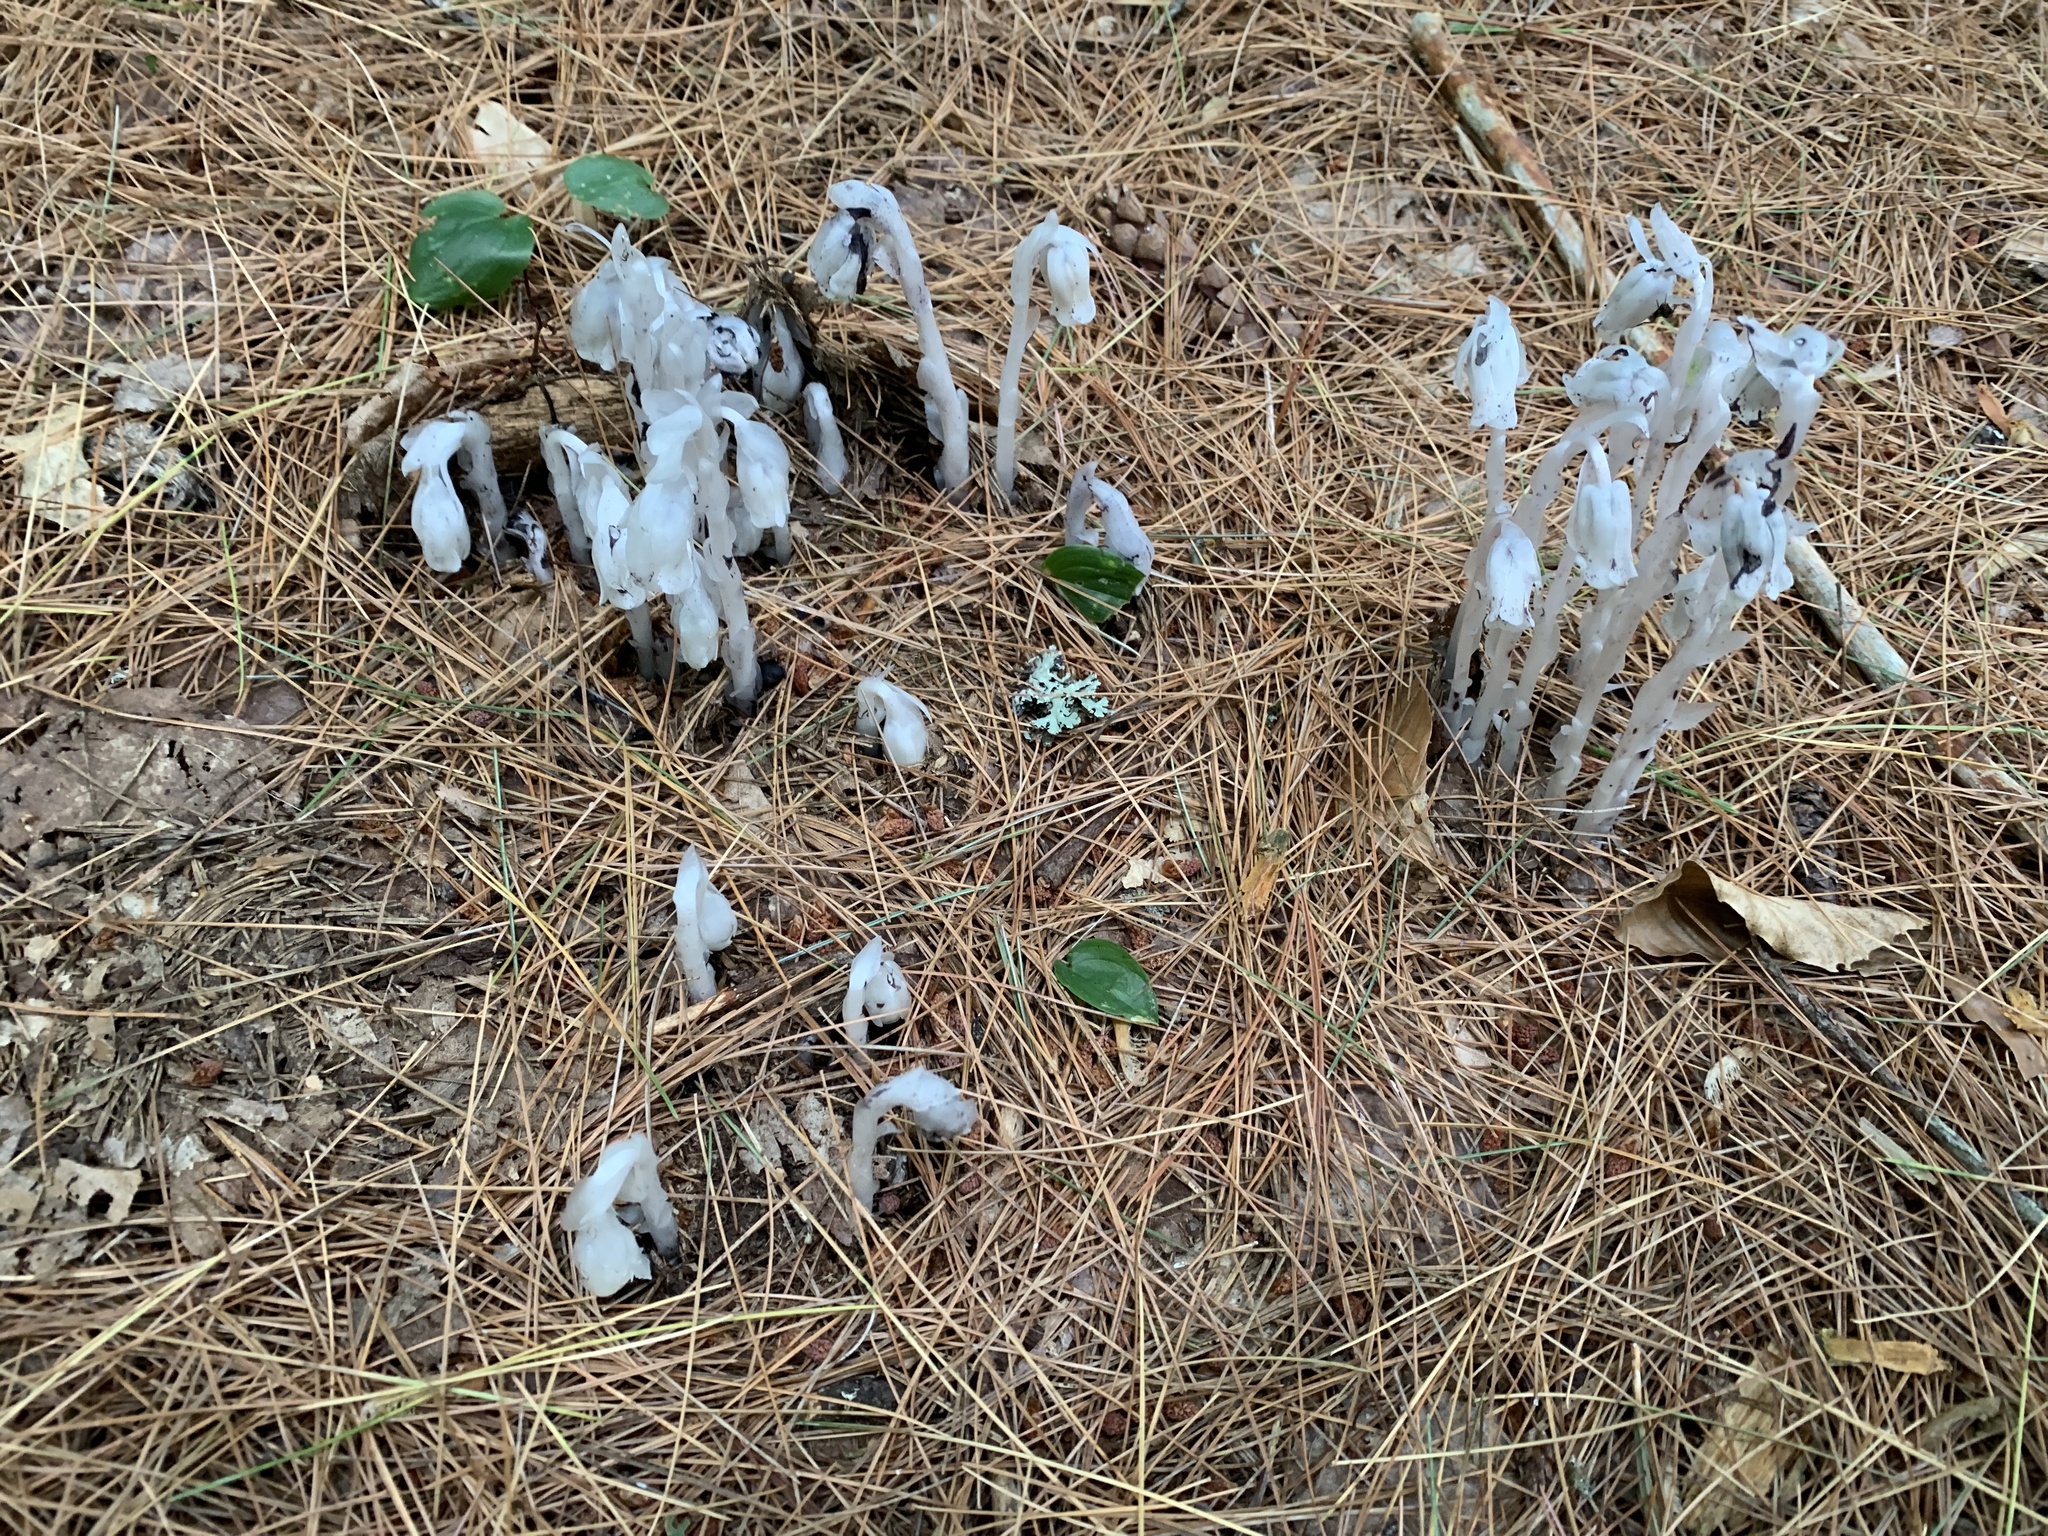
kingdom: Plantae
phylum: Tracheophyta
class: Magnoliopsida
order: Ericales
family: Ericaceae
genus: Monotropa
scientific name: Monotropa uniflora
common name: Convulsion root
